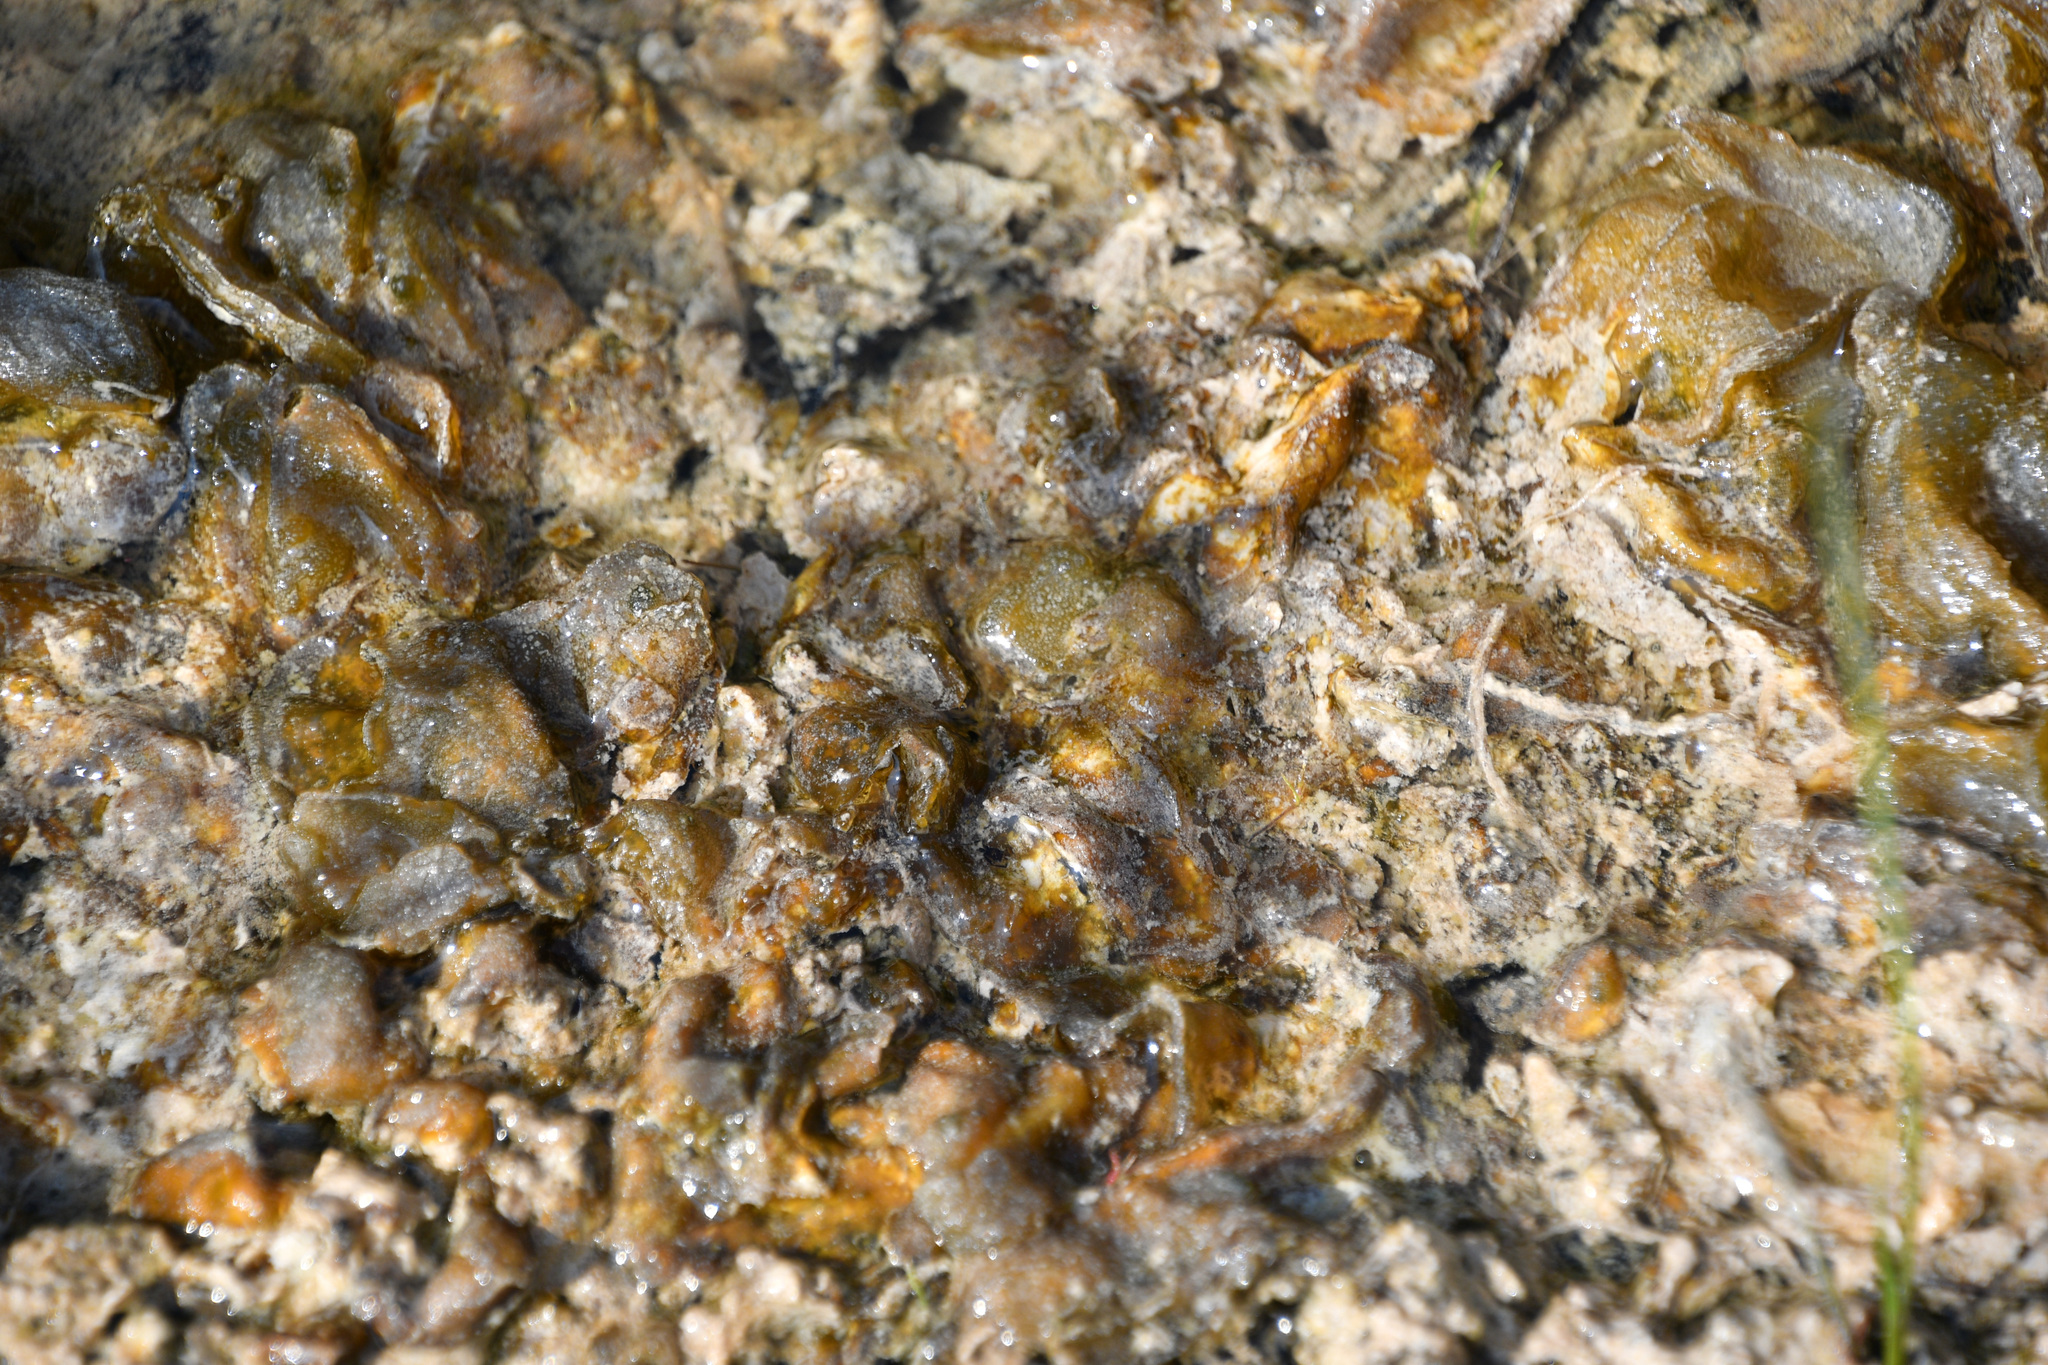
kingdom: Bacteria
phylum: Cyanobacteria
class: Cyanobacteriia
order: Cyanobacteriales
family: Nostocaceae
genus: Nostoc
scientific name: Nostoc commune
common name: Star jelly
